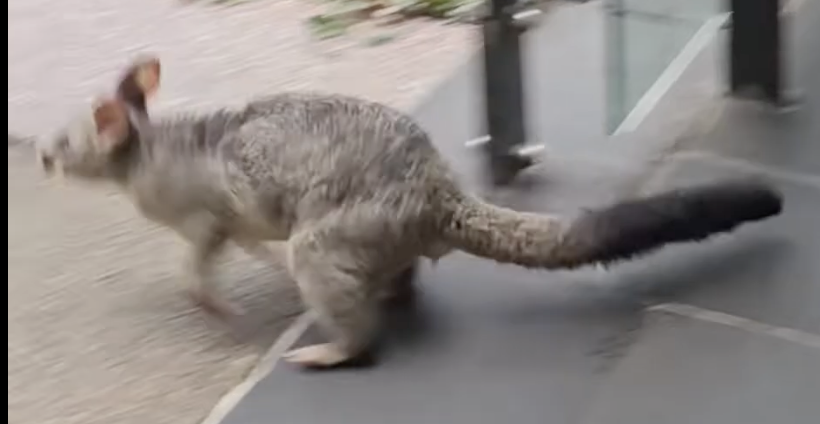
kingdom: Animalia
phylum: Chordata
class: Mammalia
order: Diprotodontia
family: Phalangeridae
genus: Trichosurus
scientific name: Trichosurus vulpecula
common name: Common brushtail
